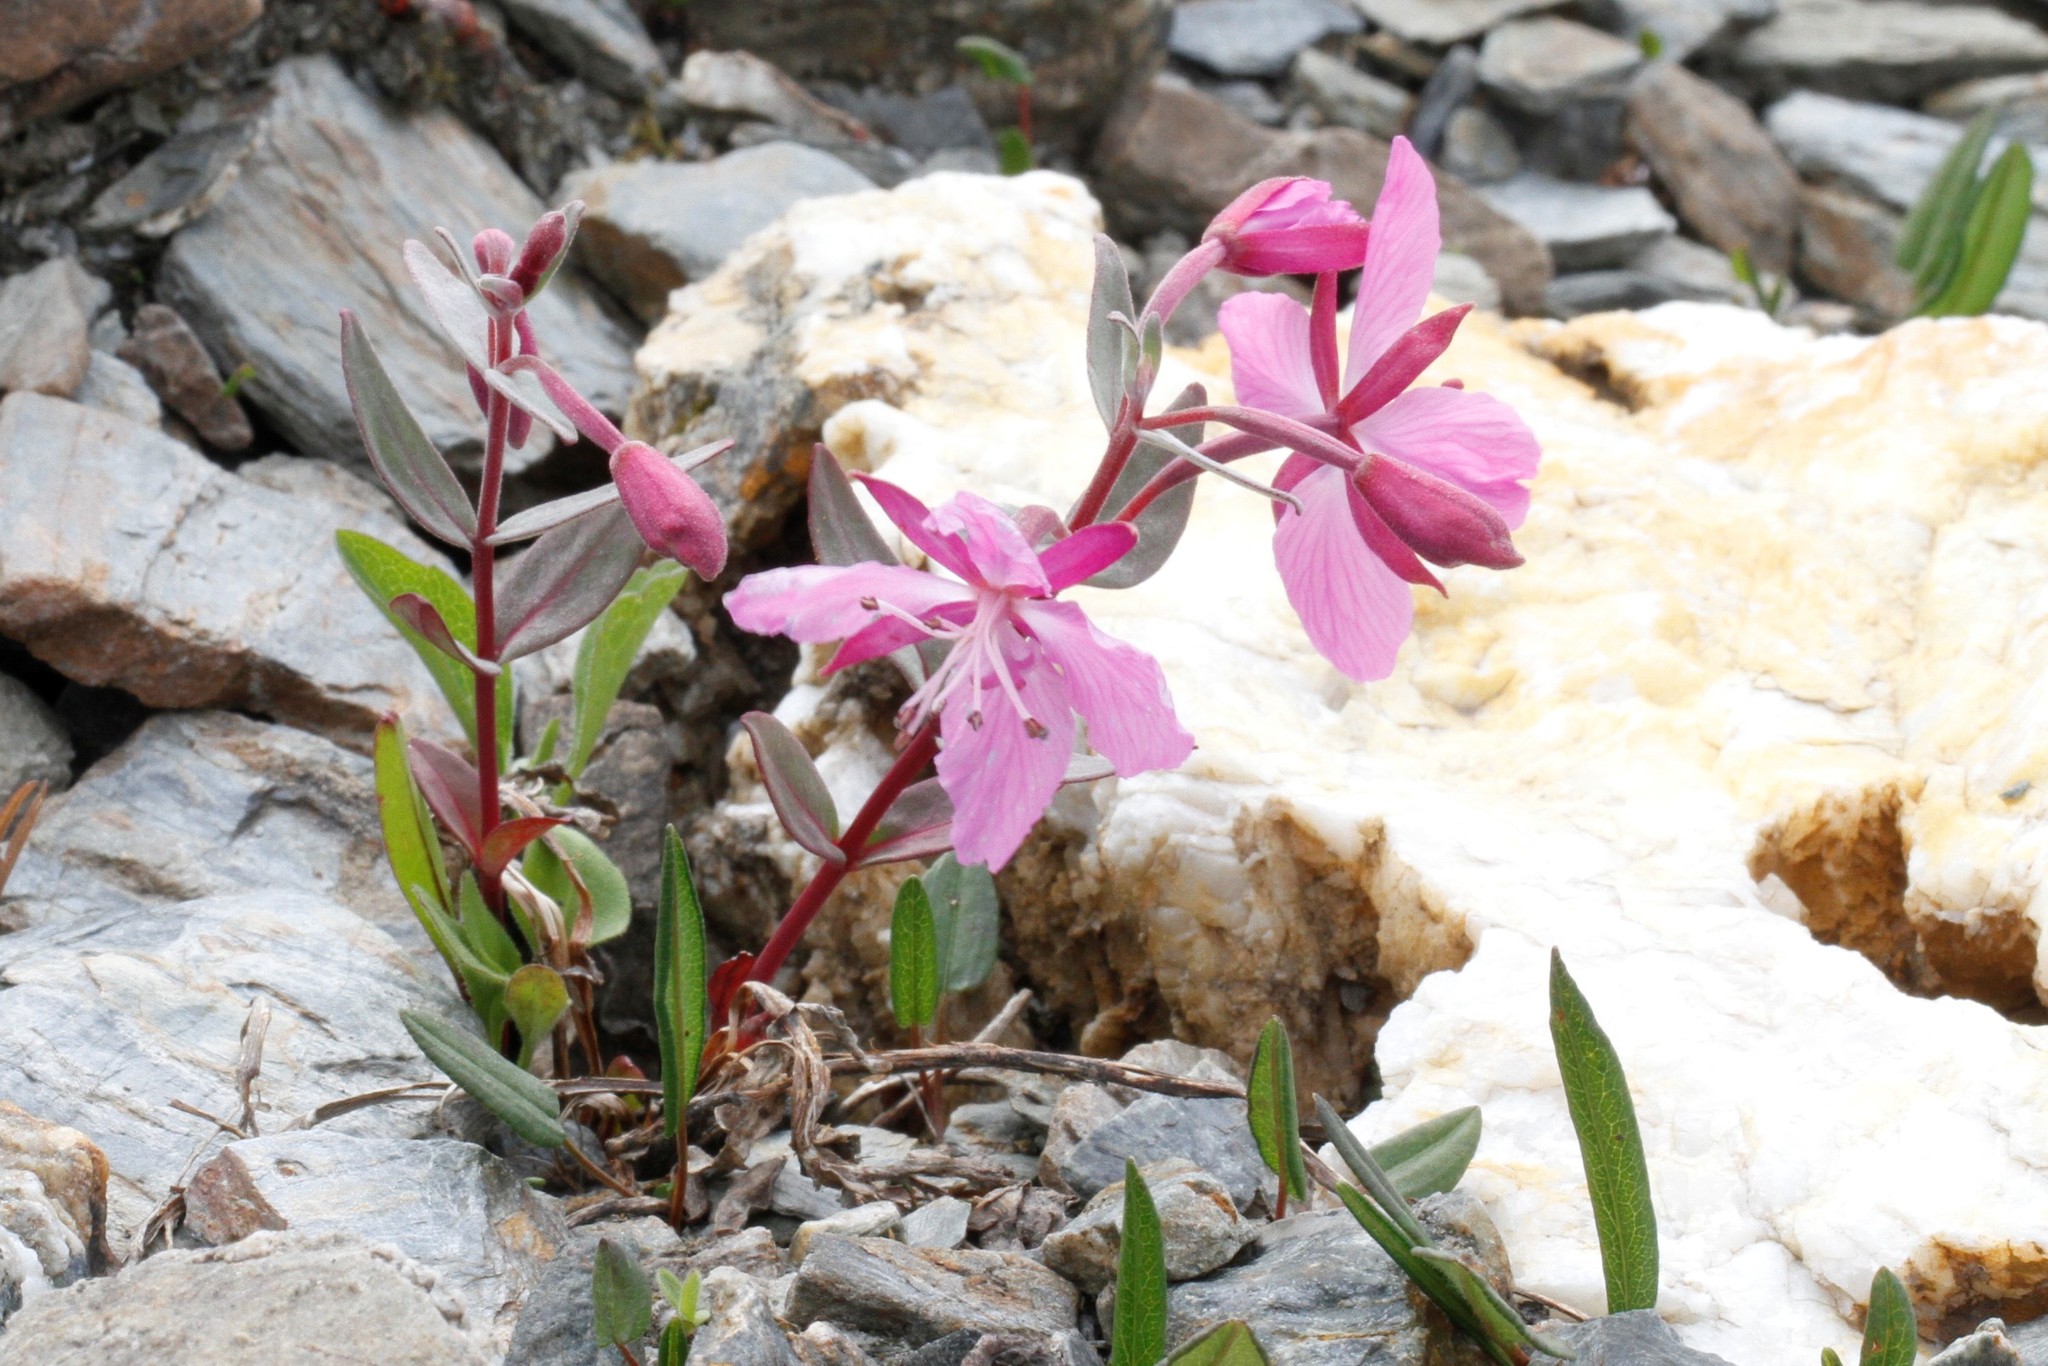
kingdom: Plantae
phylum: Tracheophyta
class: Magnoliopsida
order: Myrtales
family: Onagraceae
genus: Chamaenerion
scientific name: Chamaenerion latifolium
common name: Dwarf fireweed
